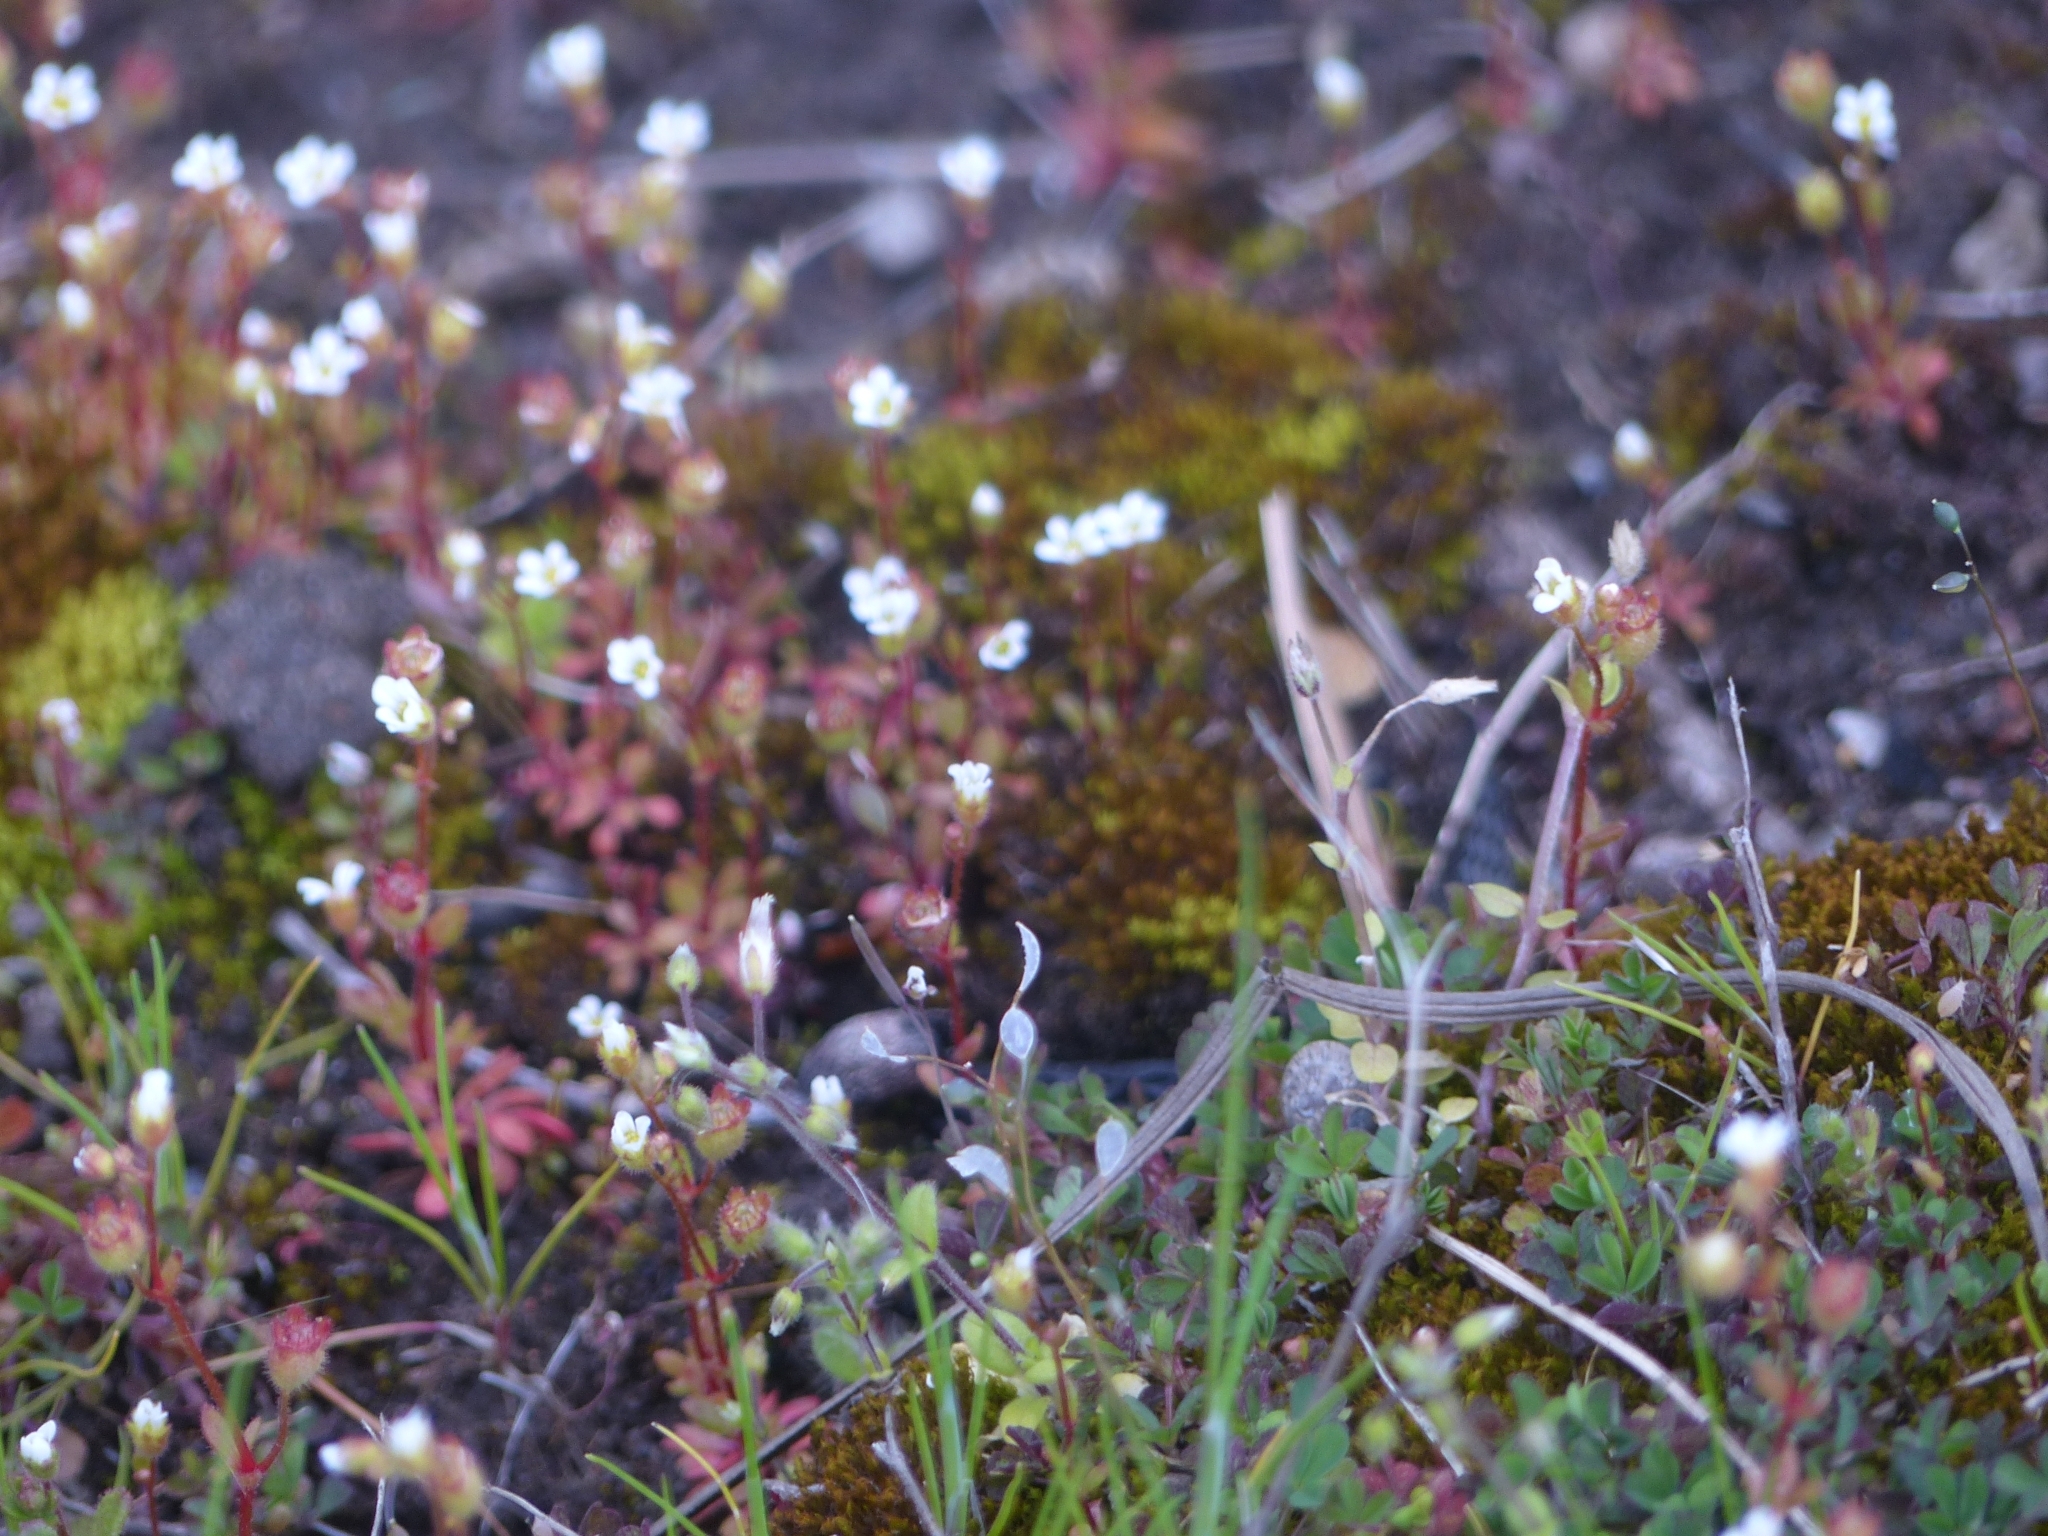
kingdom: Plantae
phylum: Tracheophyta
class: Magnoliopsida
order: Saxifragales
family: Saxifragaceae
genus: Saxifraga
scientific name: Saxifraga tridactylites
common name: Rue-leaved saxifrage
